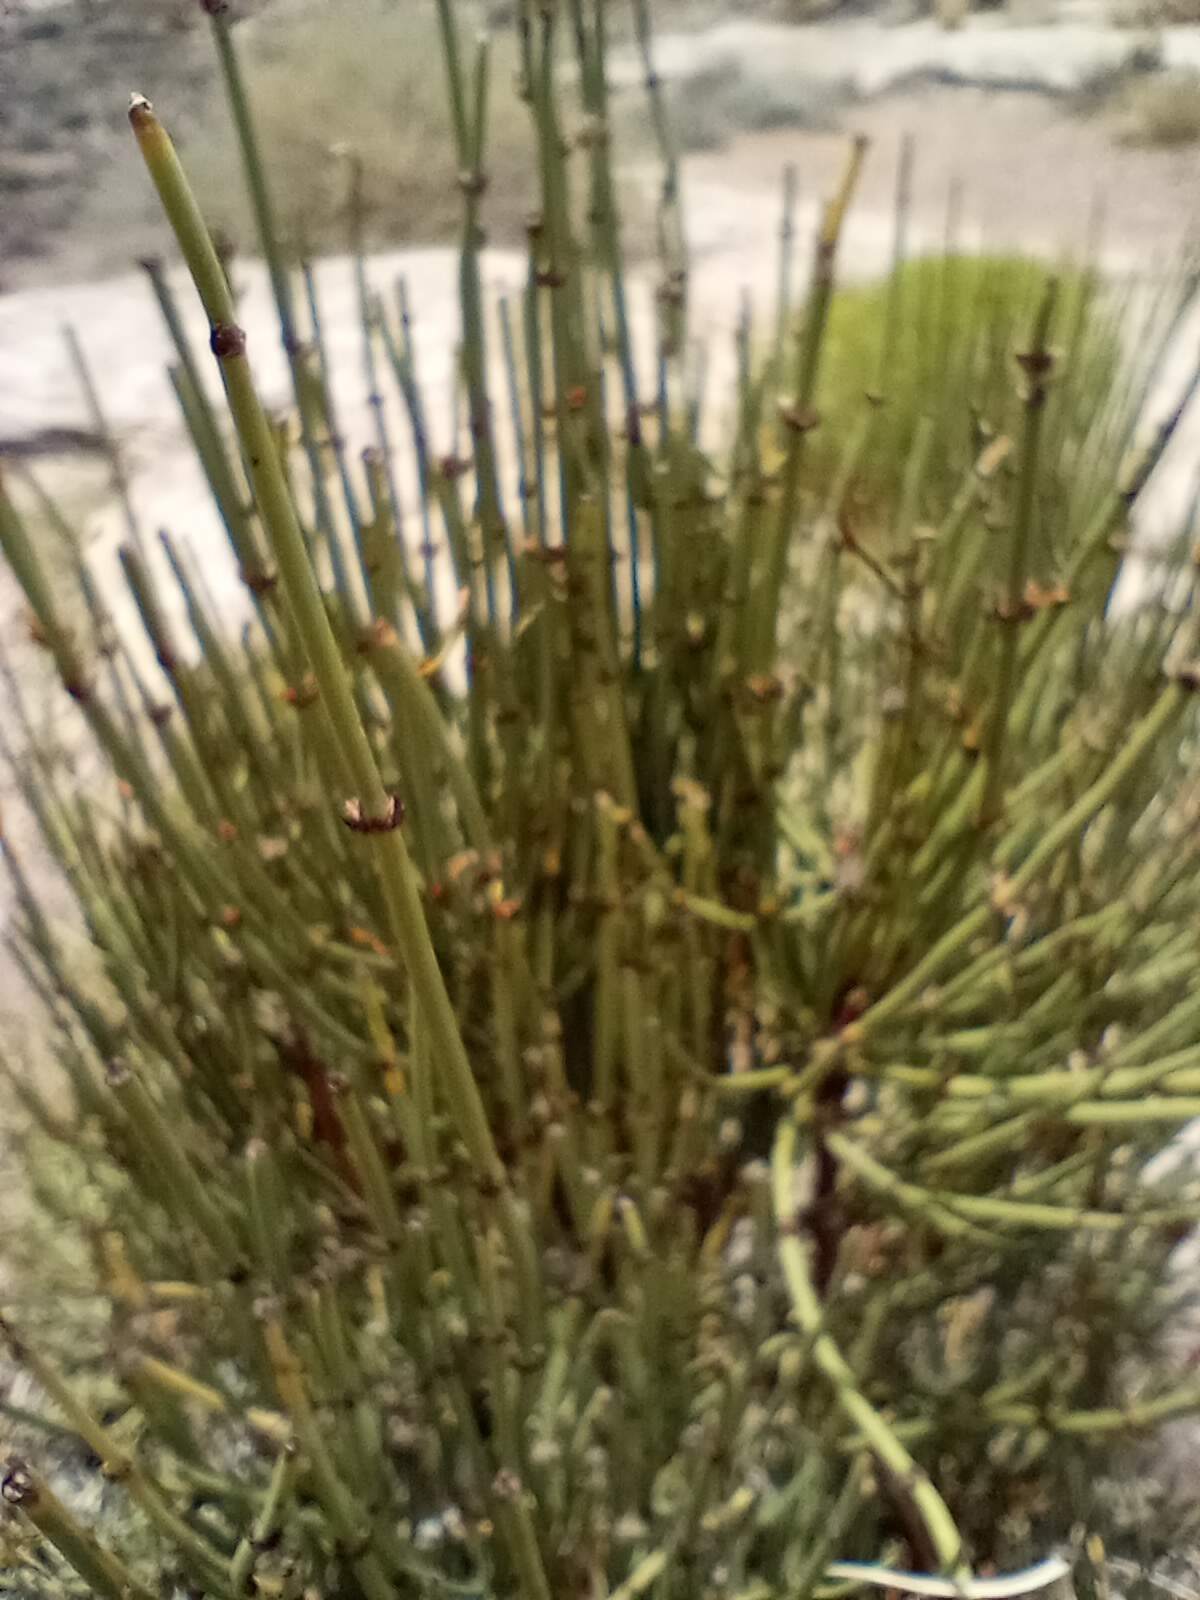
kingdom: Plantae
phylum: Tracheophyta
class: Gnetopsida
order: Ephedrales
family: Ephedraceae
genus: Ephedra
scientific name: Ephedra viridis
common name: Green ephedra
